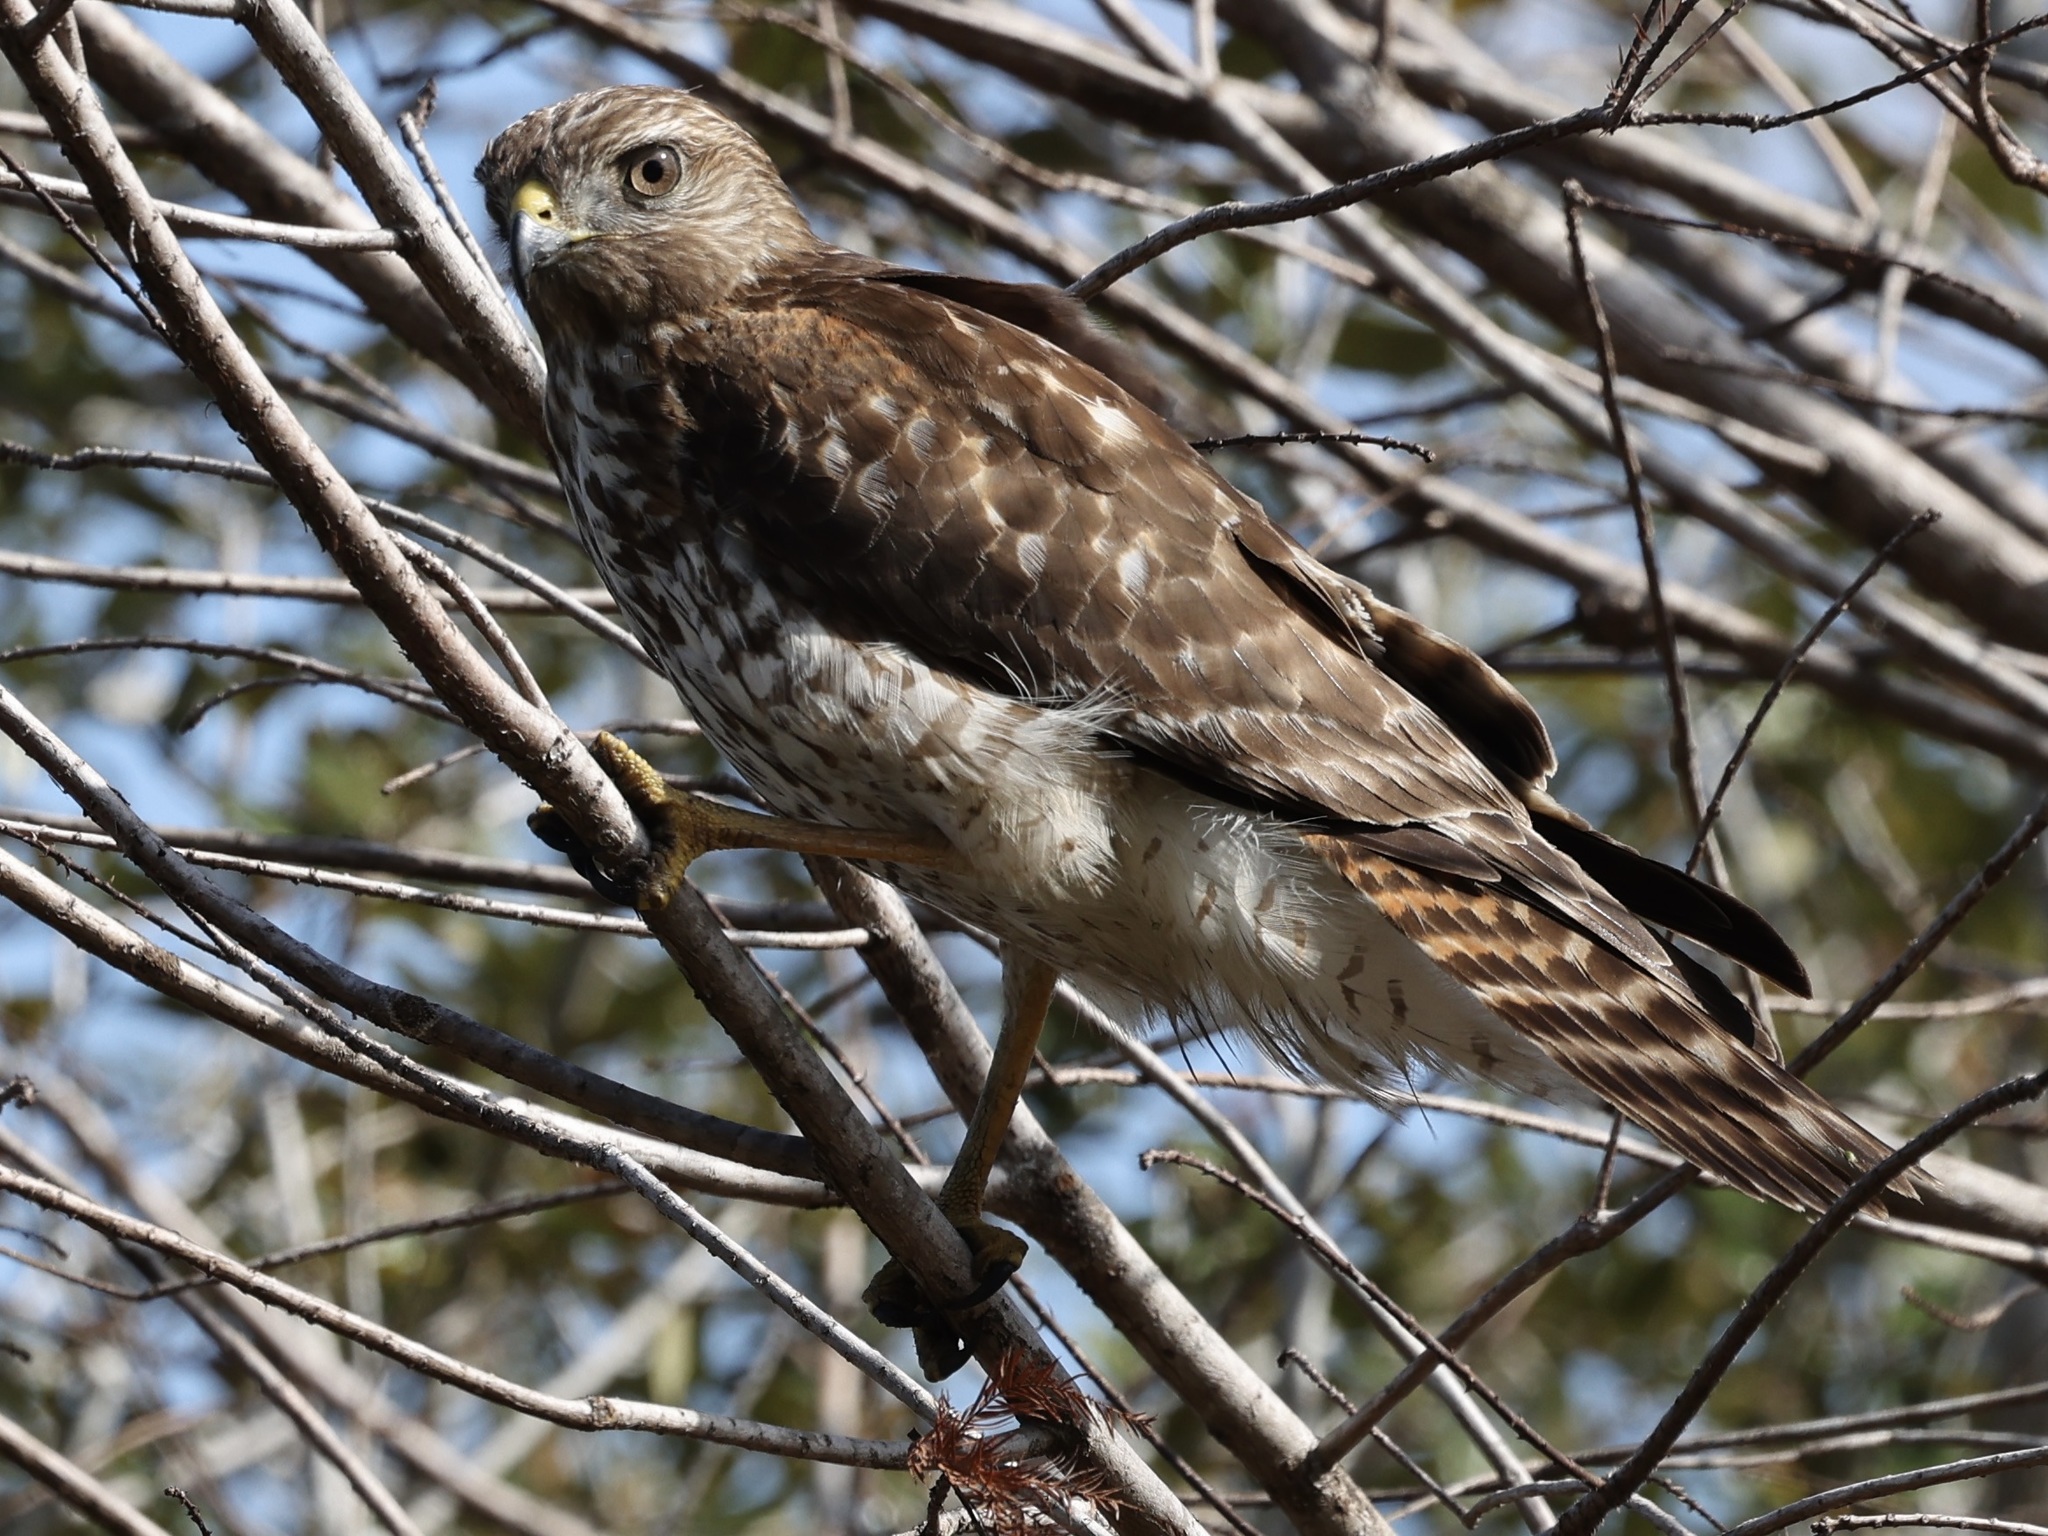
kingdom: Animalia
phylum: Chordata
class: Aves
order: Accipitriformes
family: Accipitridae
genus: Buteo
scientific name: Buteo lineatus
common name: Red-shouldered hawk
